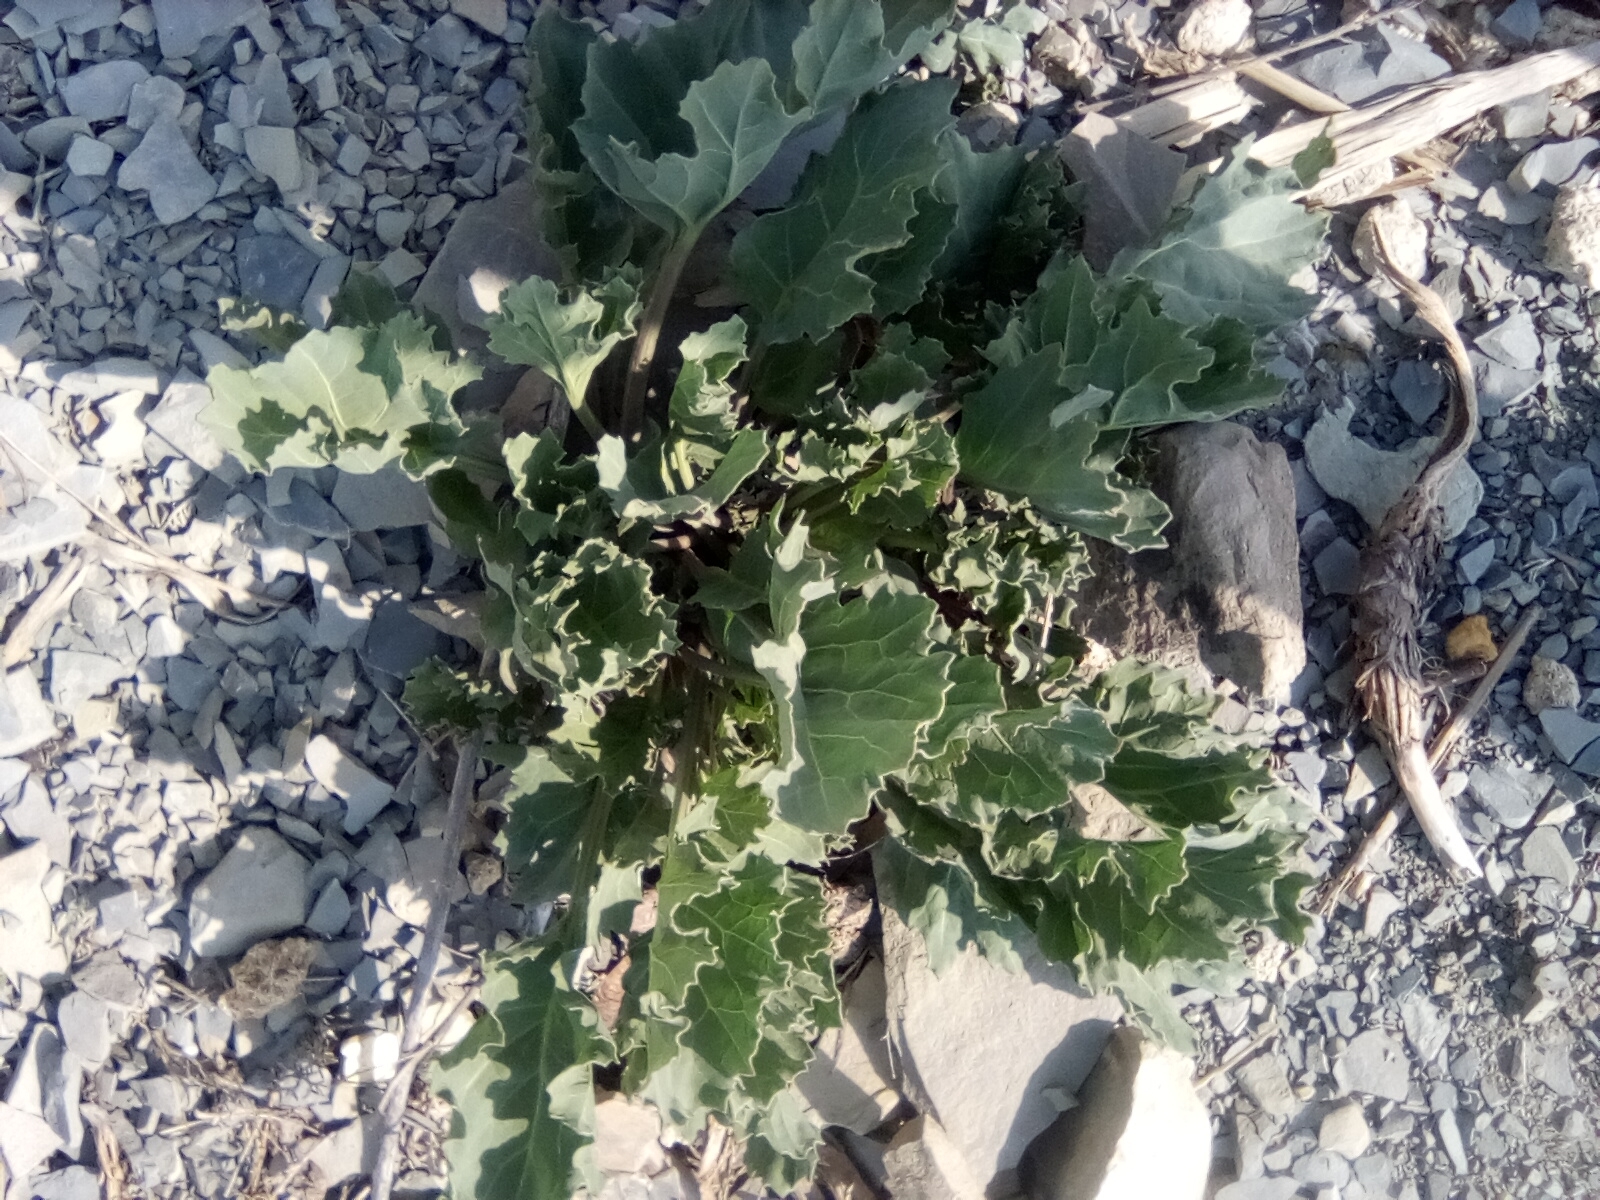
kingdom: Plantae
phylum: Tracheophyta
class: Magnoliopsida
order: Brassicales
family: Brassicaceae
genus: Crambe
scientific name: Crambe maritima
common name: Sea-kale
